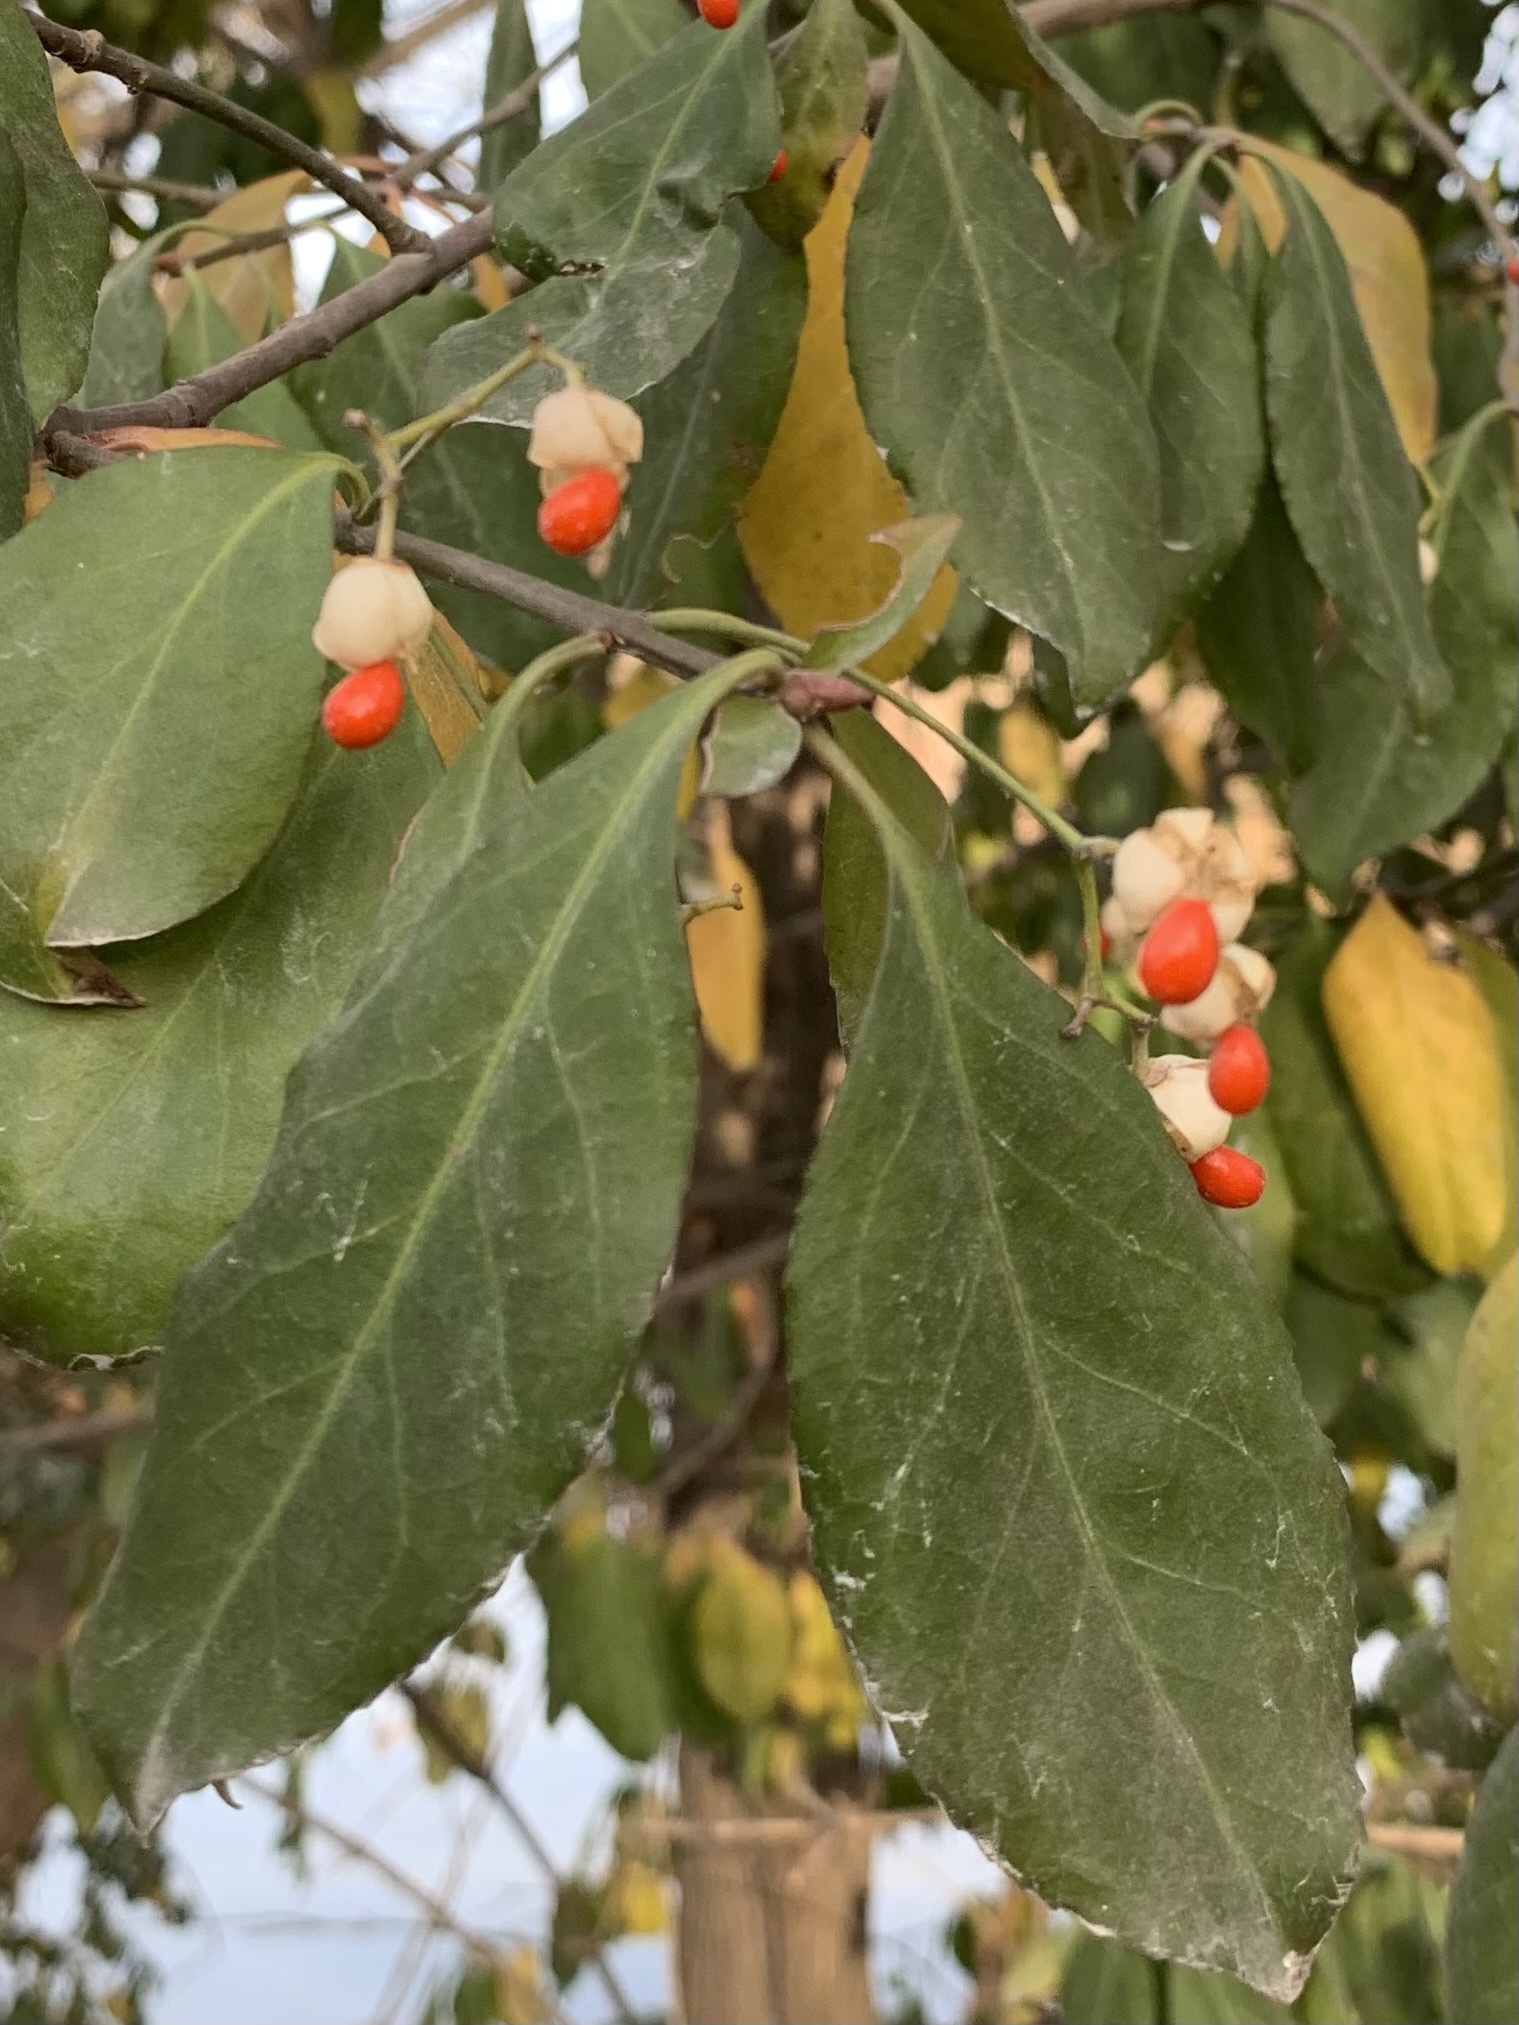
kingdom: Plantae
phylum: Tracheophyta
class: Magnoliopsida
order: Celastrales
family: Celastraceae
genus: Euonymus
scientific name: Euonymus fortunei
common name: Climbing euonymus
